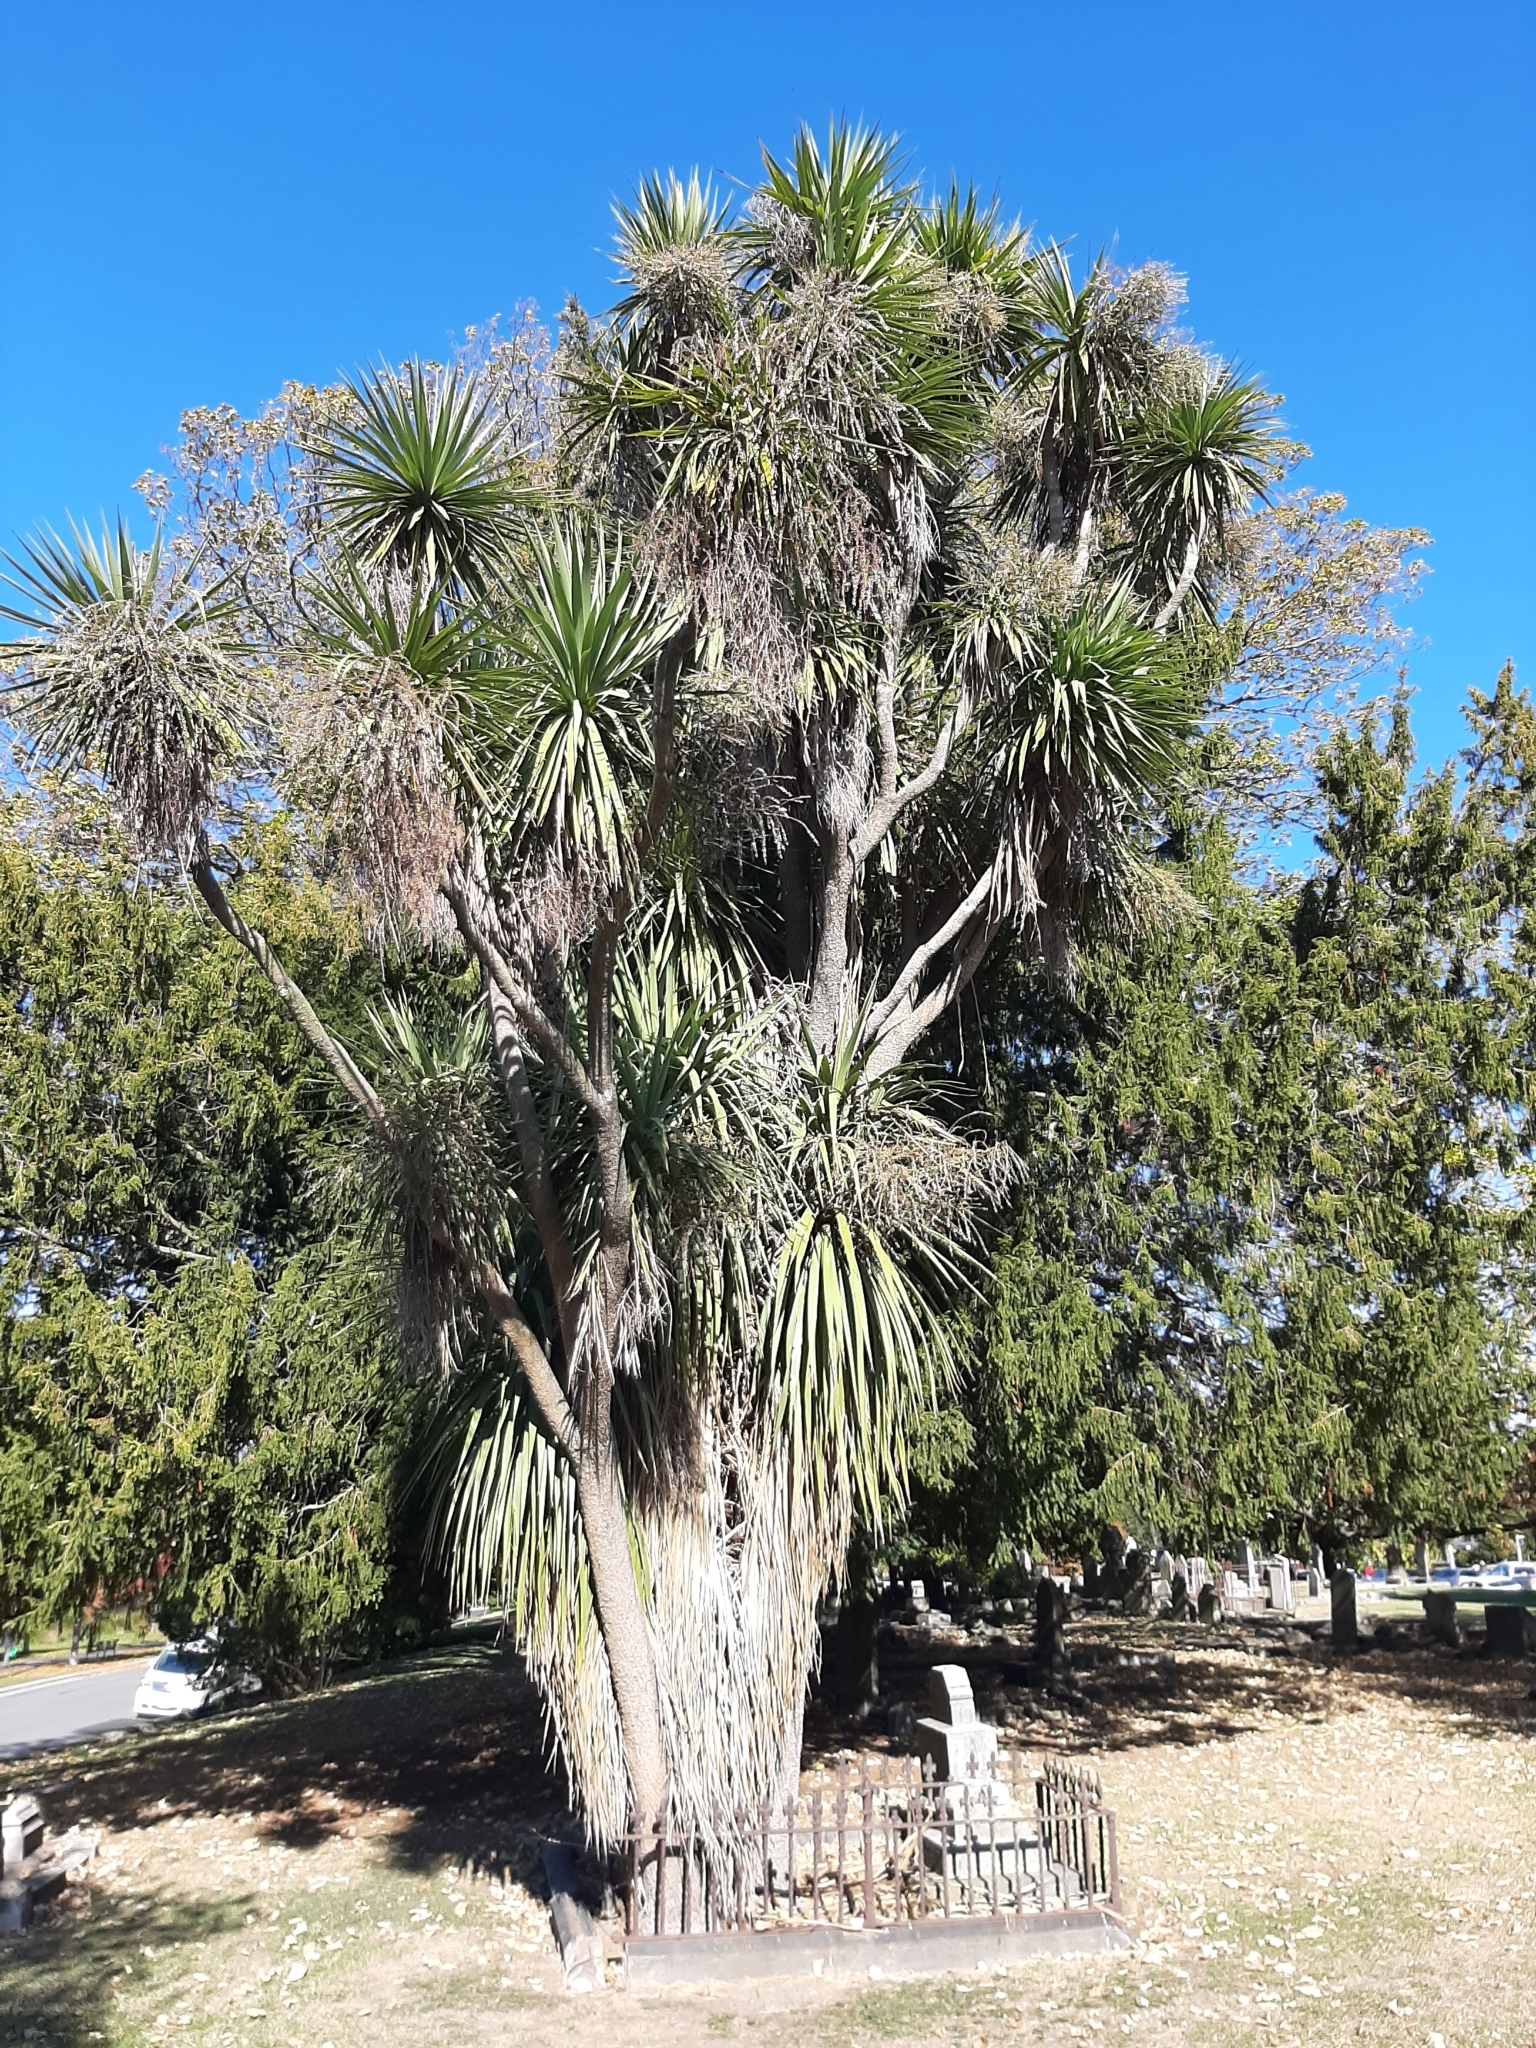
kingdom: Plantae
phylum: Tracheophyta
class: Liliopsida
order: Asparagales
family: Asparagaceae
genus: Cordyline
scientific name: Cordyline australis
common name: Cabbage-palm
